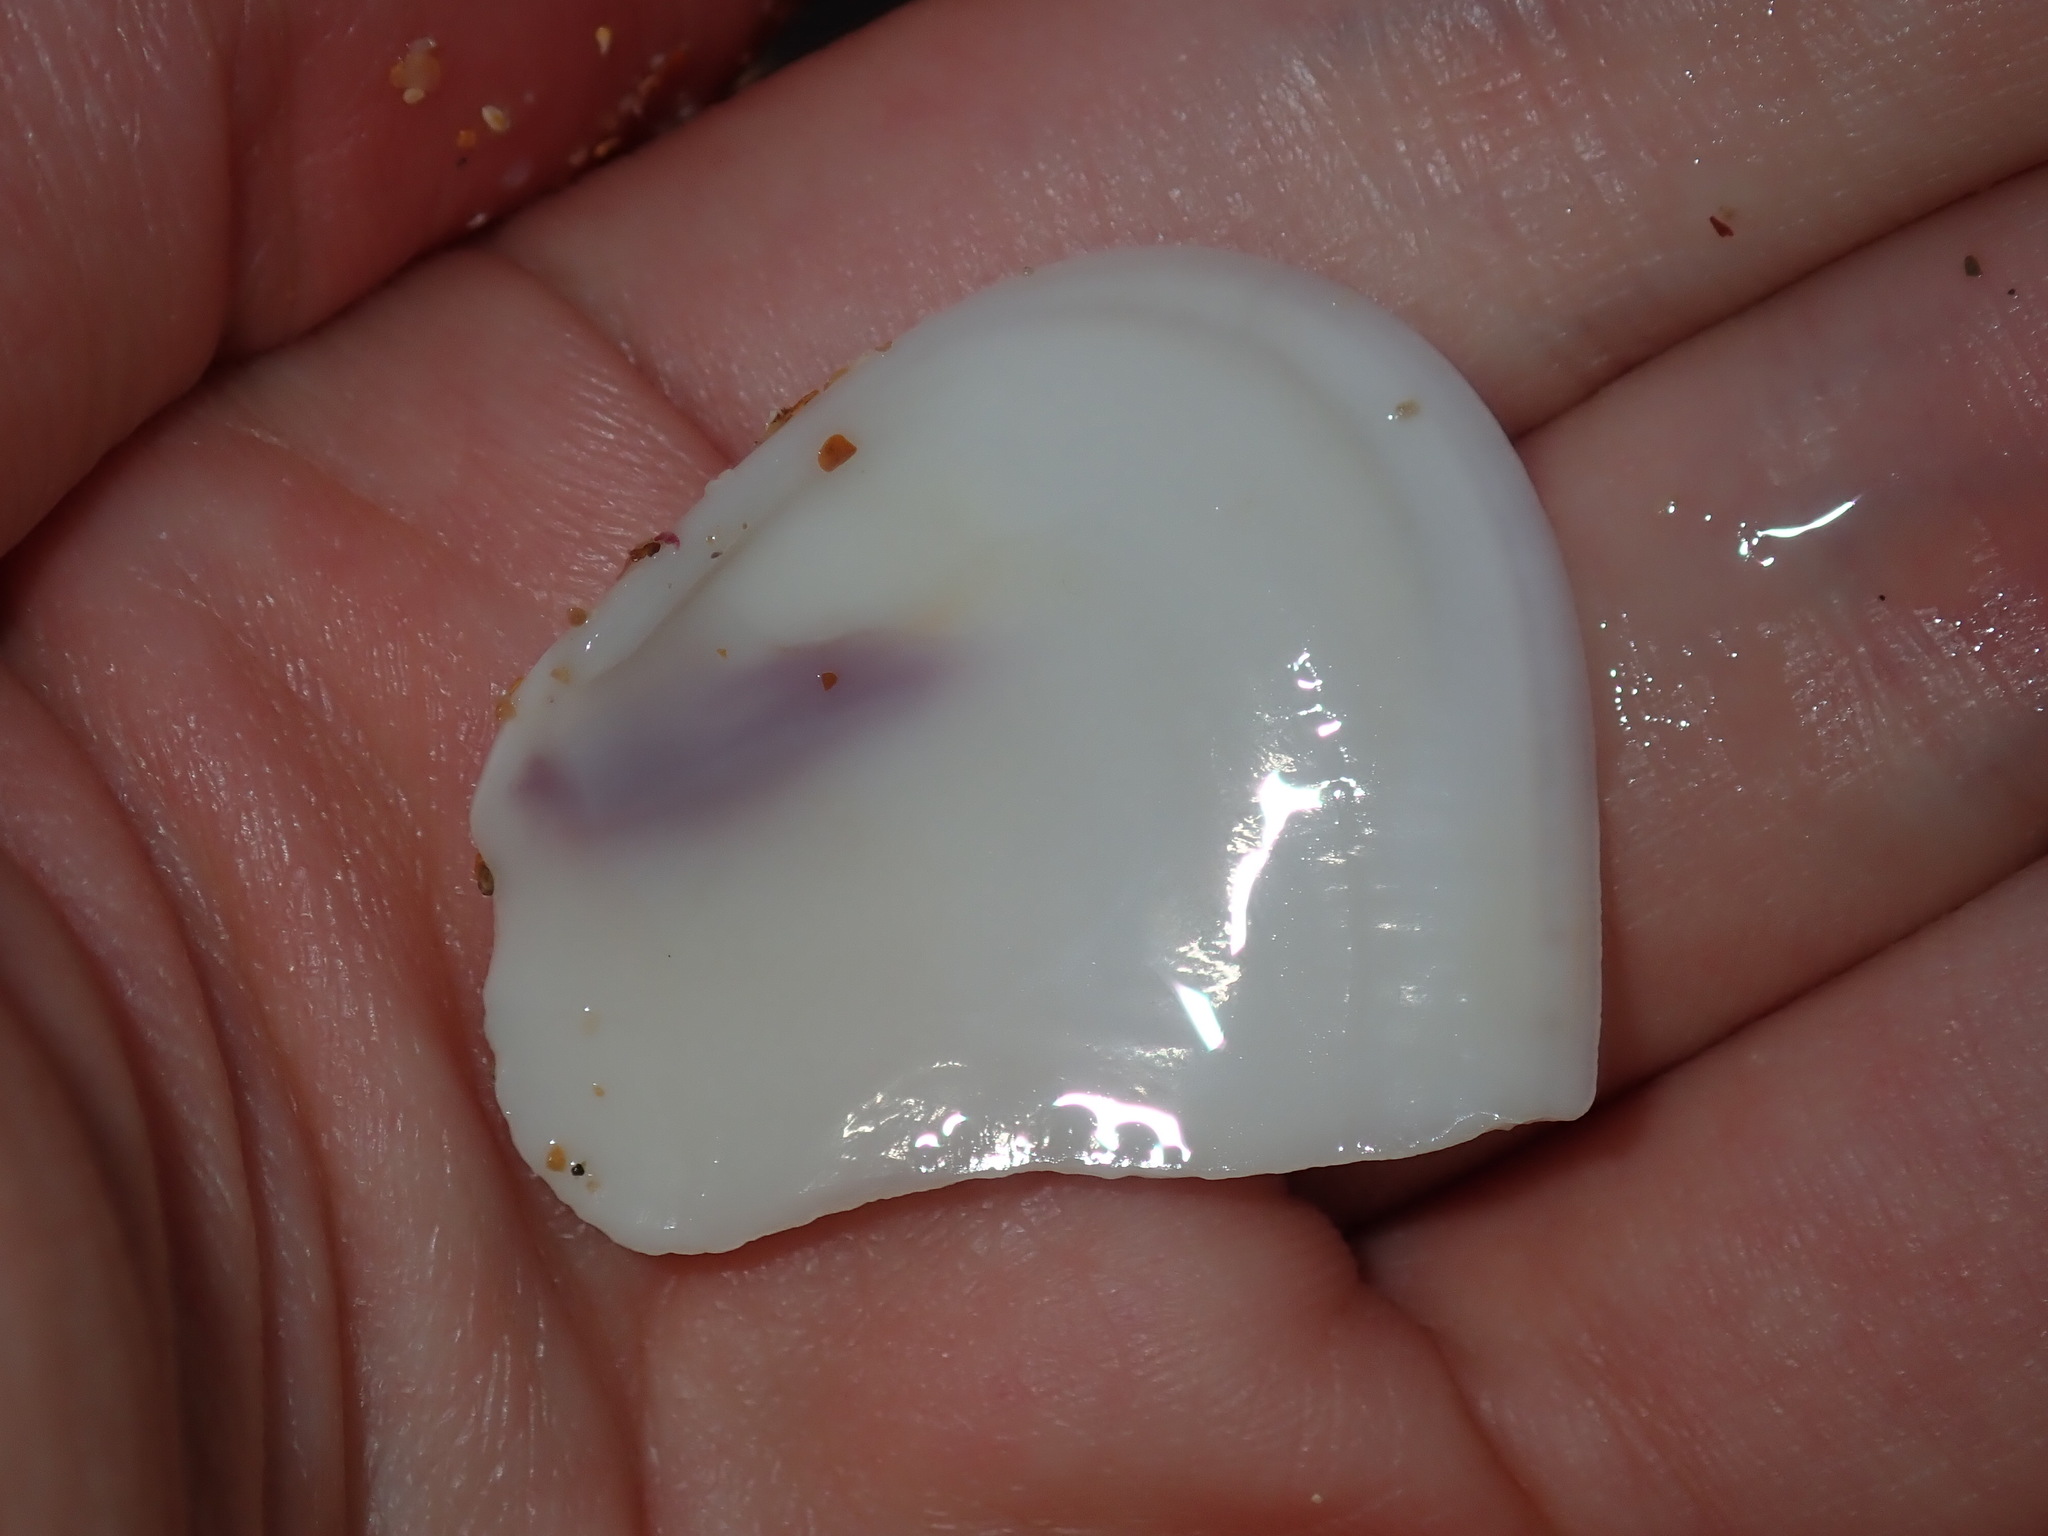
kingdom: Animalia
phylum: Mollusca
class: Bivalvia
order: Cardiida
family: Donacidae
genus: Latona
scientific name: Latona deltoides
